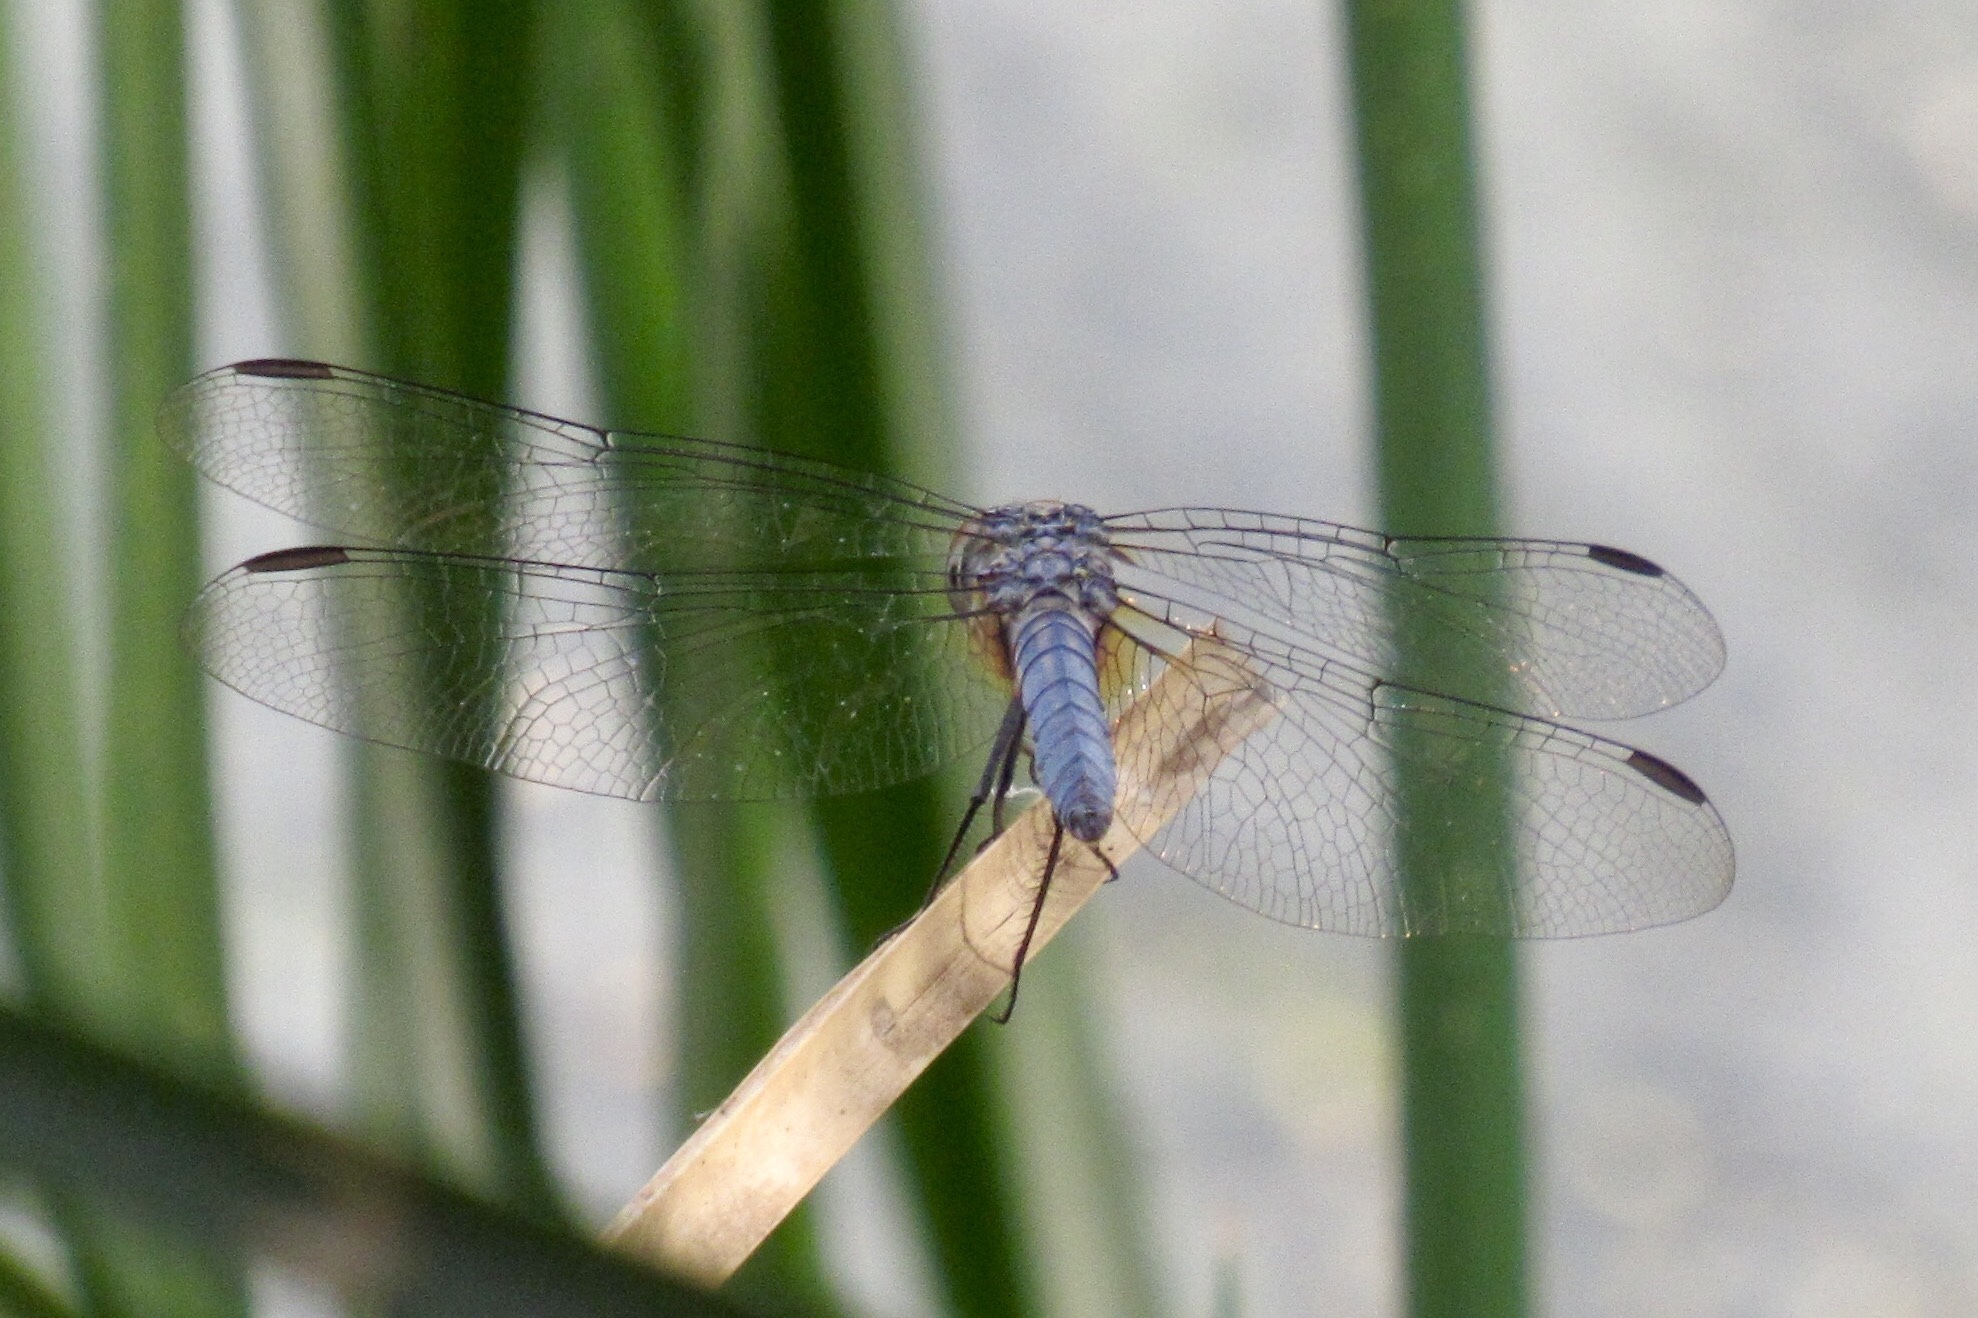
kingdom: Animalia
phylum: Arthropoda
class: Insecta
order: Odonata
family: Libellulidae
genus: Pachydiplax
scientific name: Pachydiplax longipennis
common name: Blue dasher
